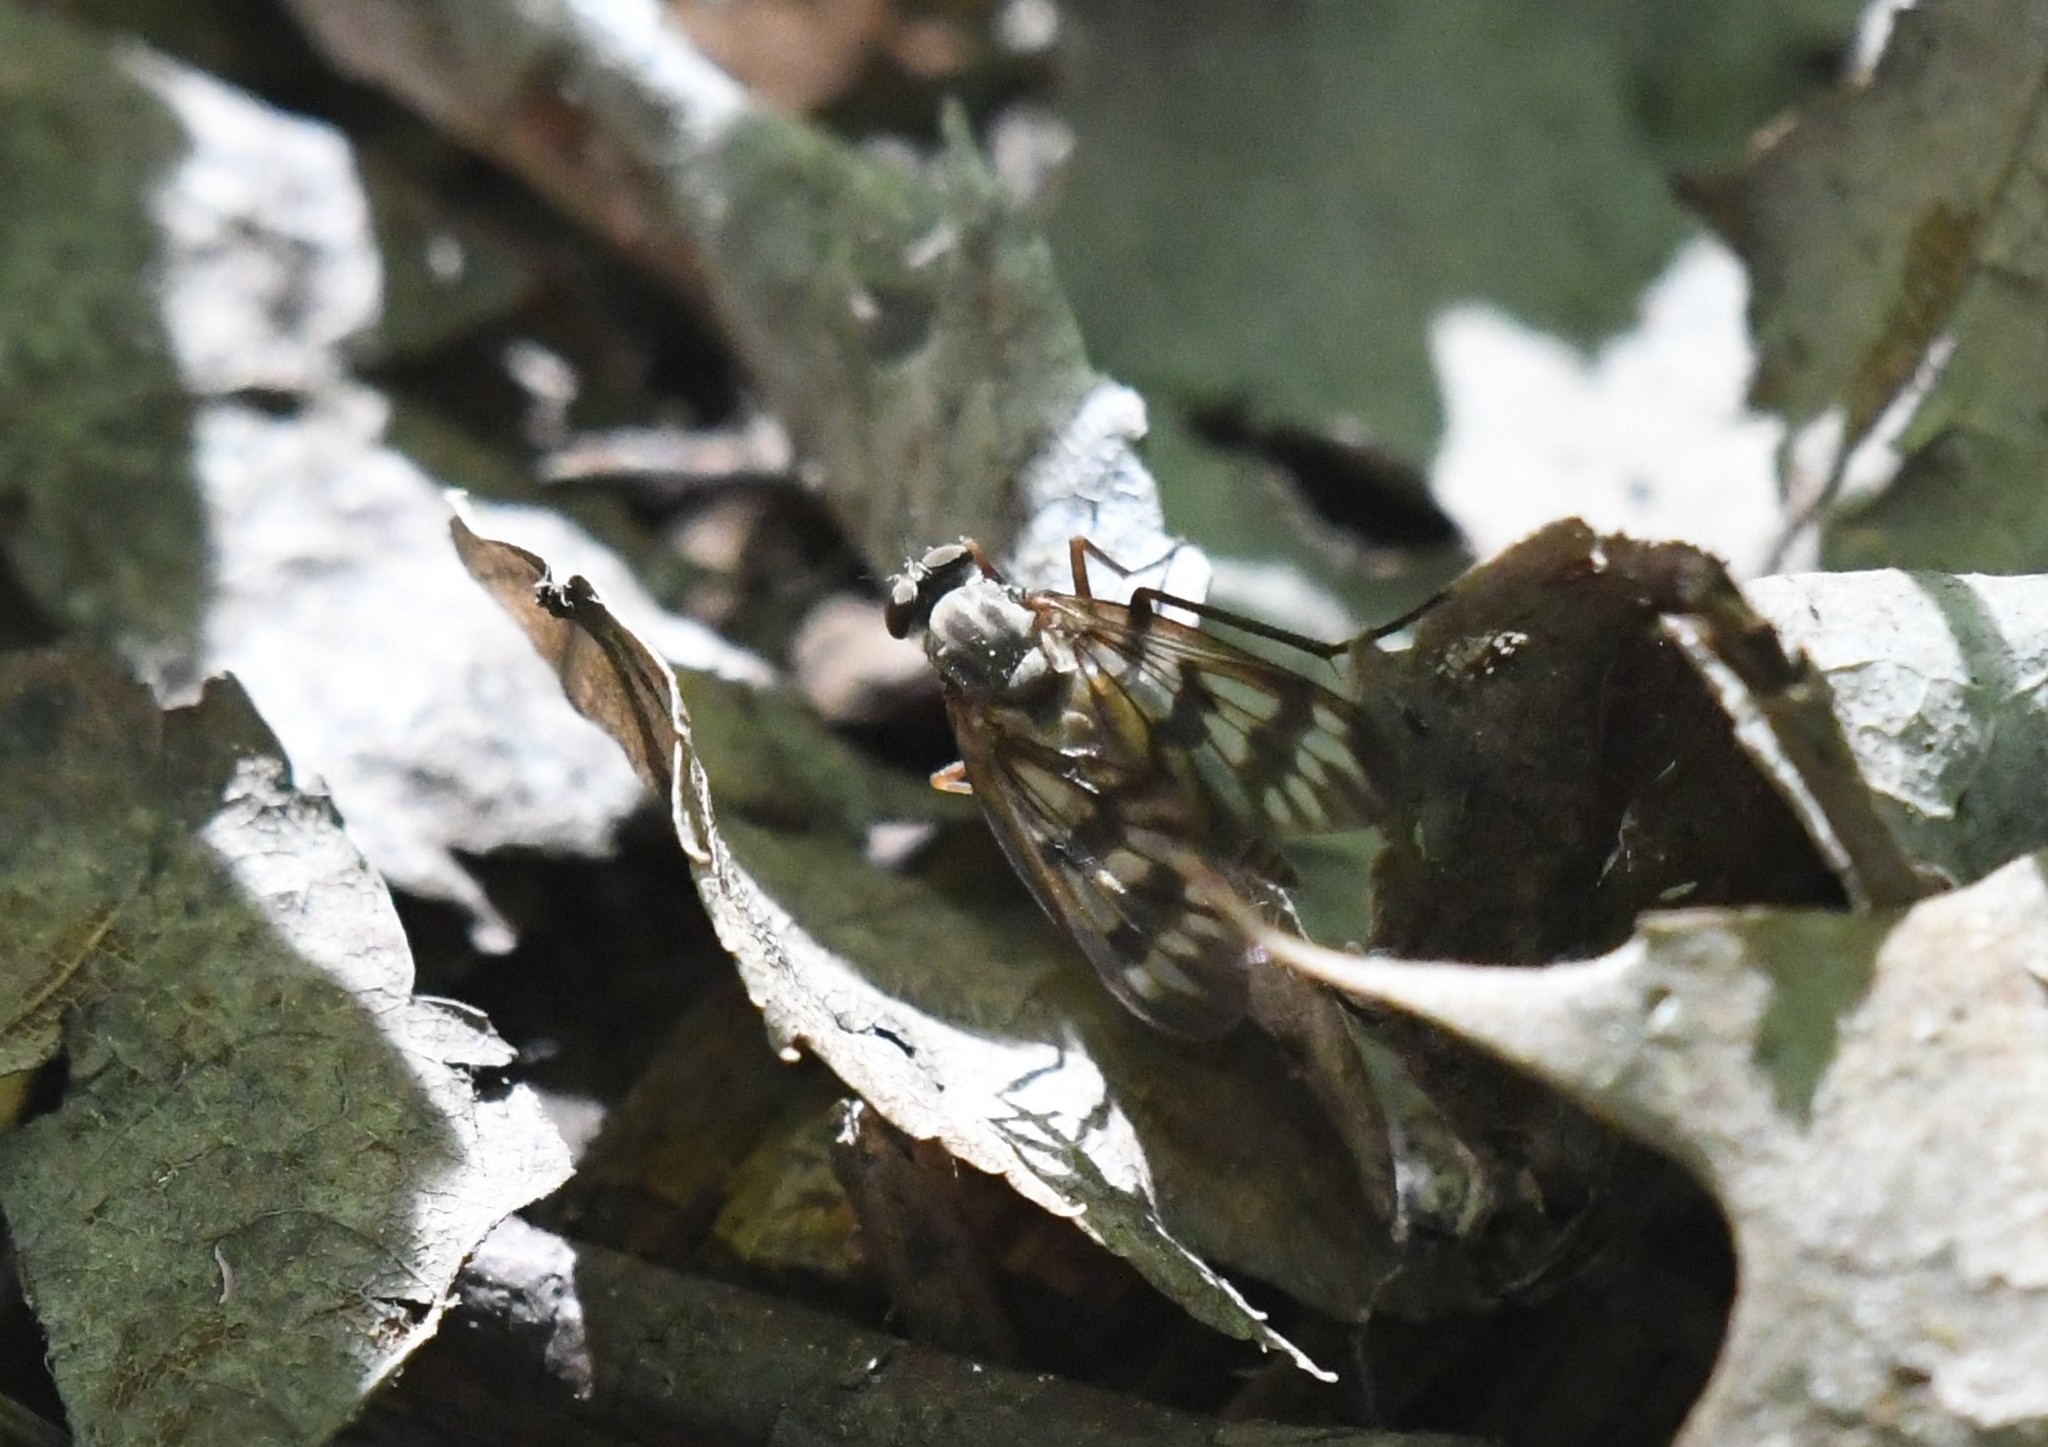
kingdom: Animalia
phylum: Arthropoda
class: Insecta
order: Diptera
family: Rhagionidae
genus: Rhagio
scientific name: Rhagio mystaceus
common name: Common snipe fly
